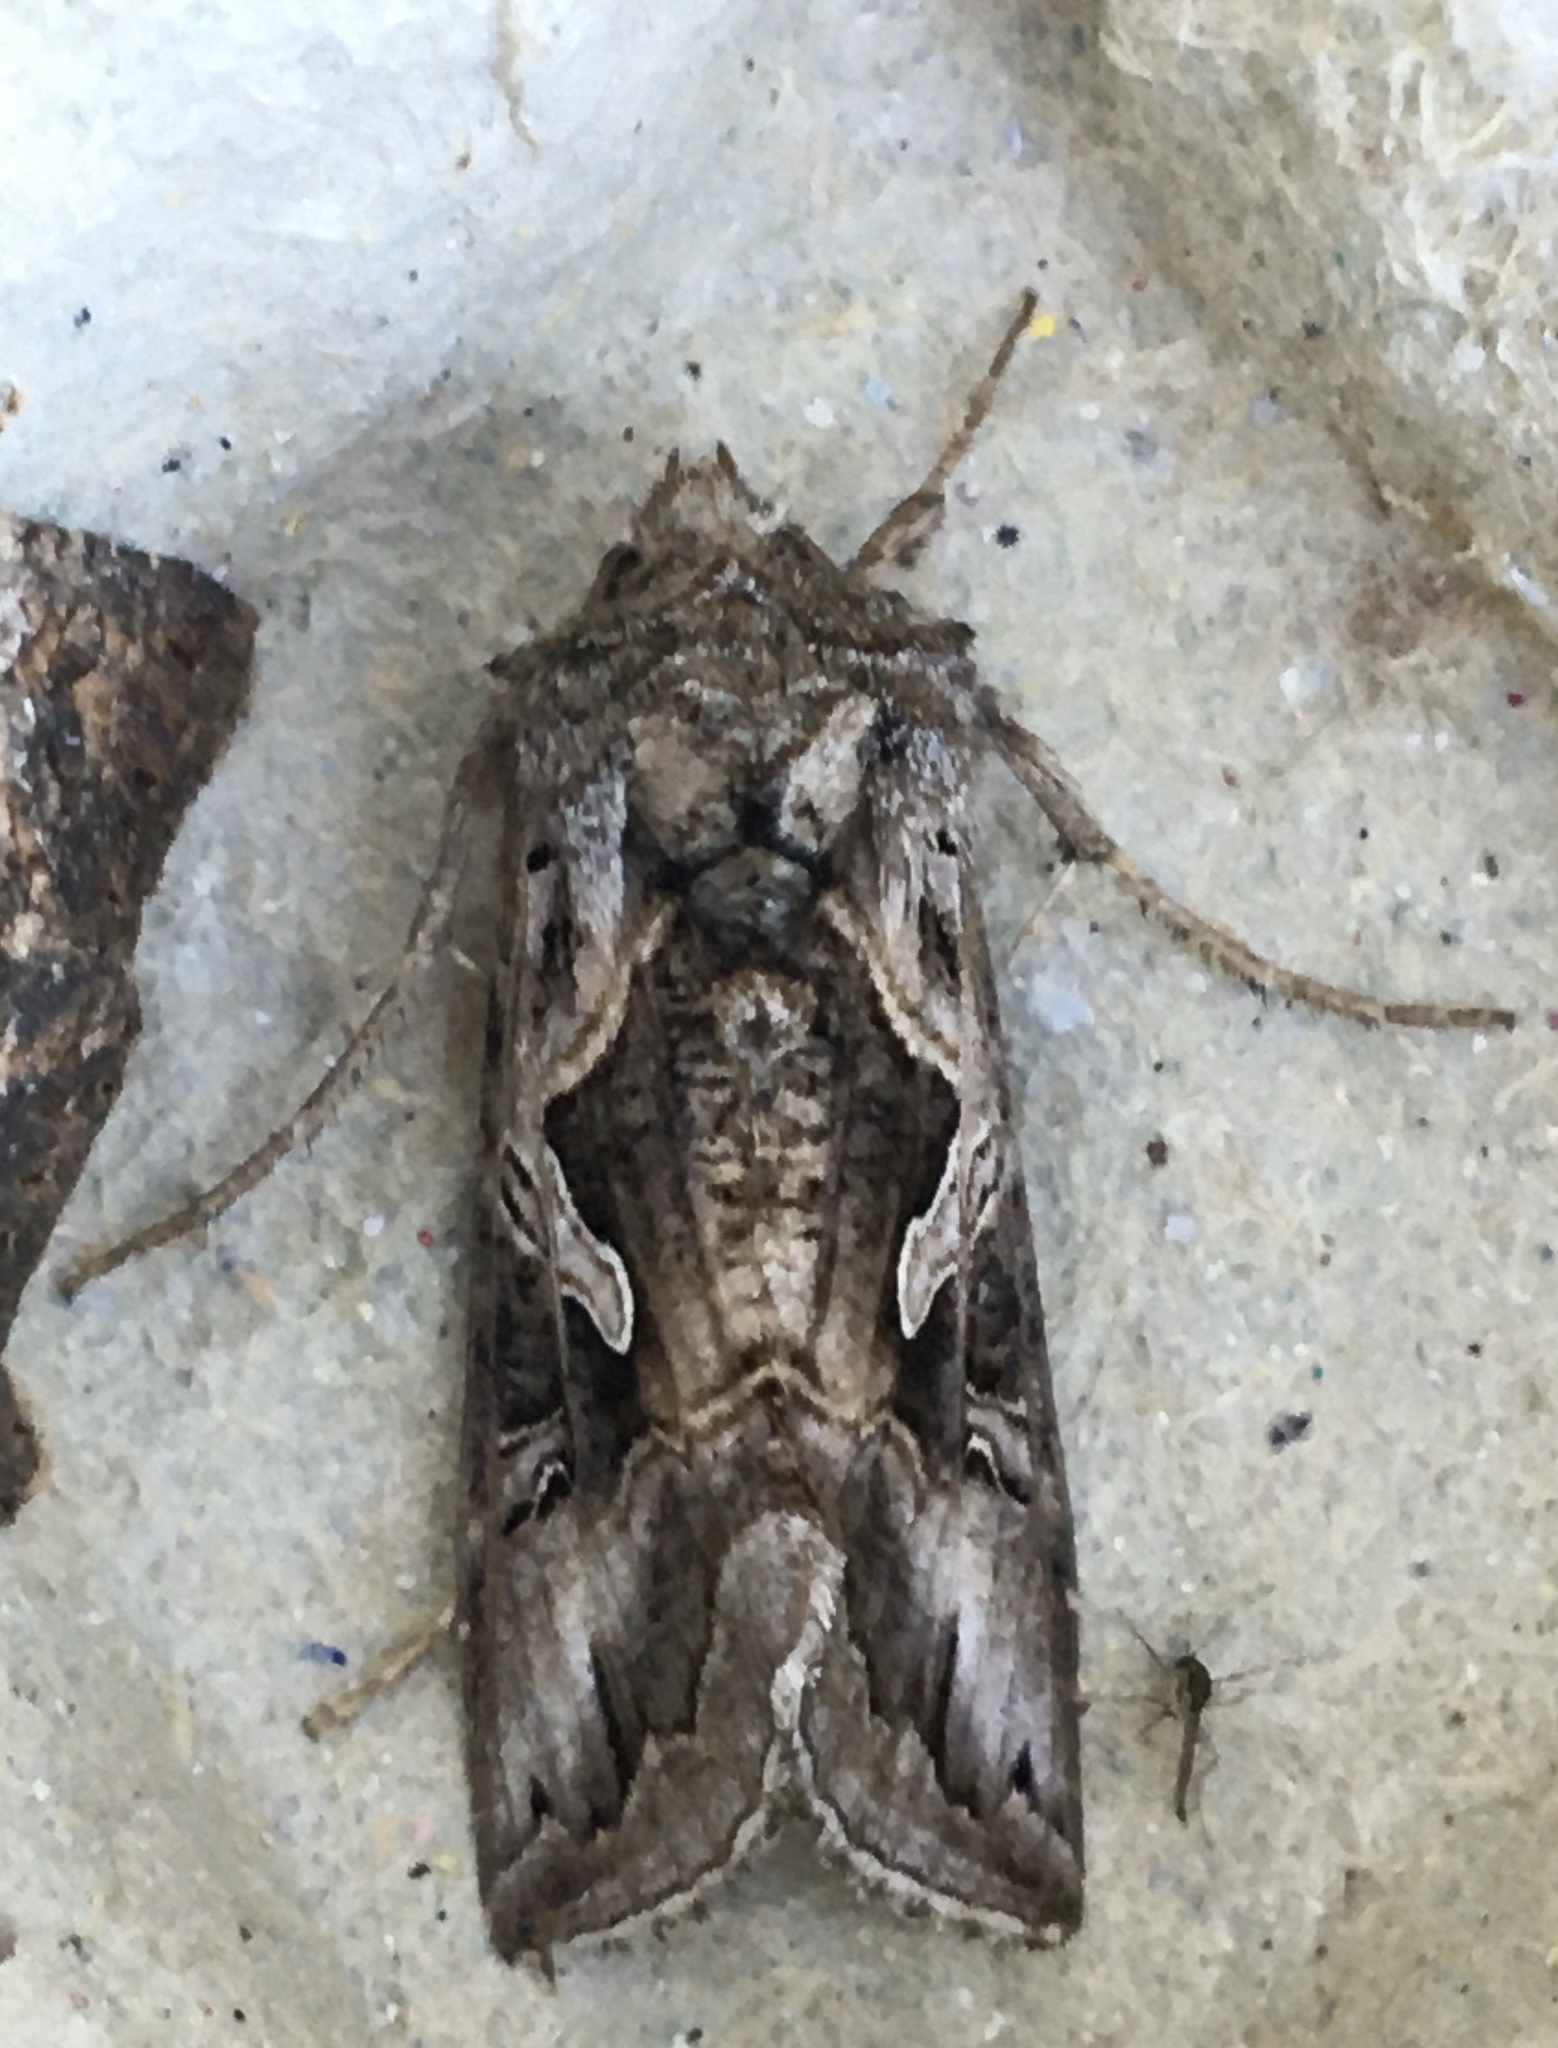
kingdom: Animalia
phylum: Arthropoda
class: Insecta
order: Lepidoptera
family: Noctuidae
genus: Cornutiplusia
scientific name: Cornutiplusia circumflexa
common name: Yorkshire y
